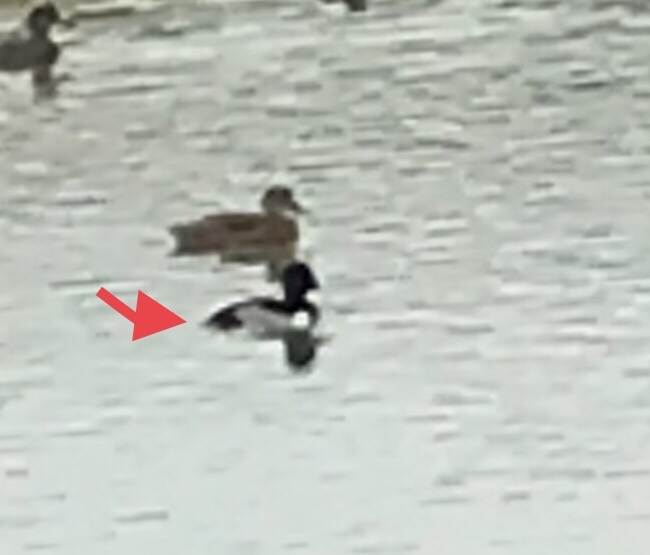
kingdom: Animalia
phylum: Chordata
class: Aves
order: Anseriformes
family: Anatidae
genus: Aythya
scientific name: Aythya collaris
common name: Ring-necked duck
